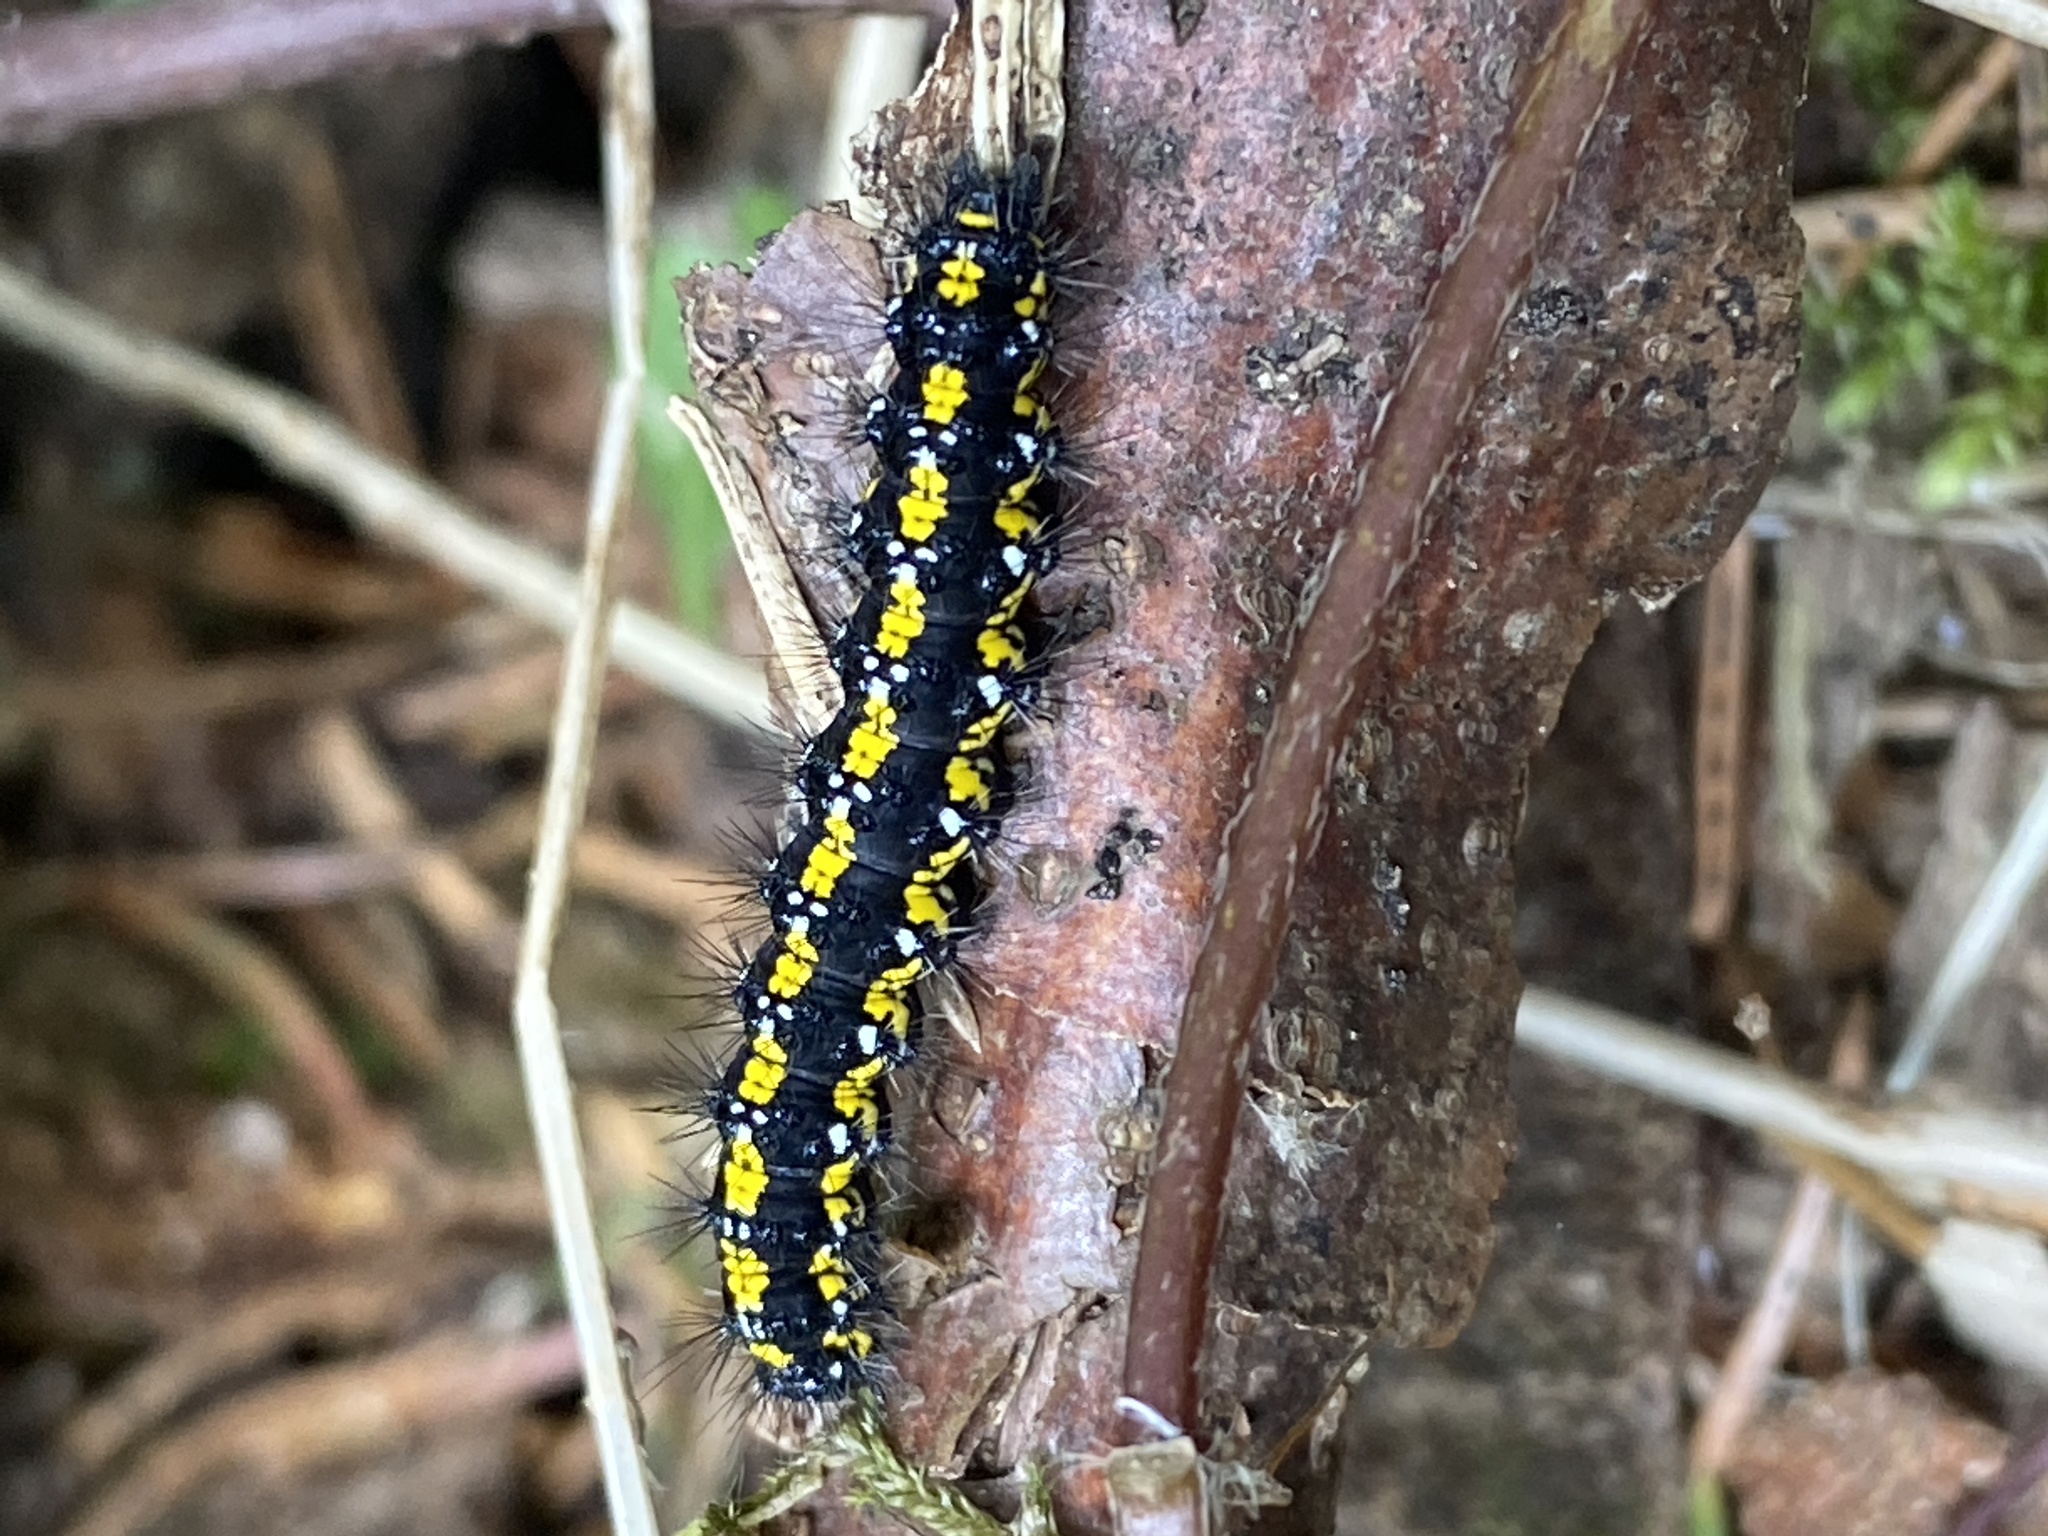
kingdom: Animalia
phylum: Arthropoda
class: Insecta
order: Lepidoptera
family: Erebidae
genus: Callimorpha
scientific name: Callimorpha dominula
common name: Scarlet tiger
